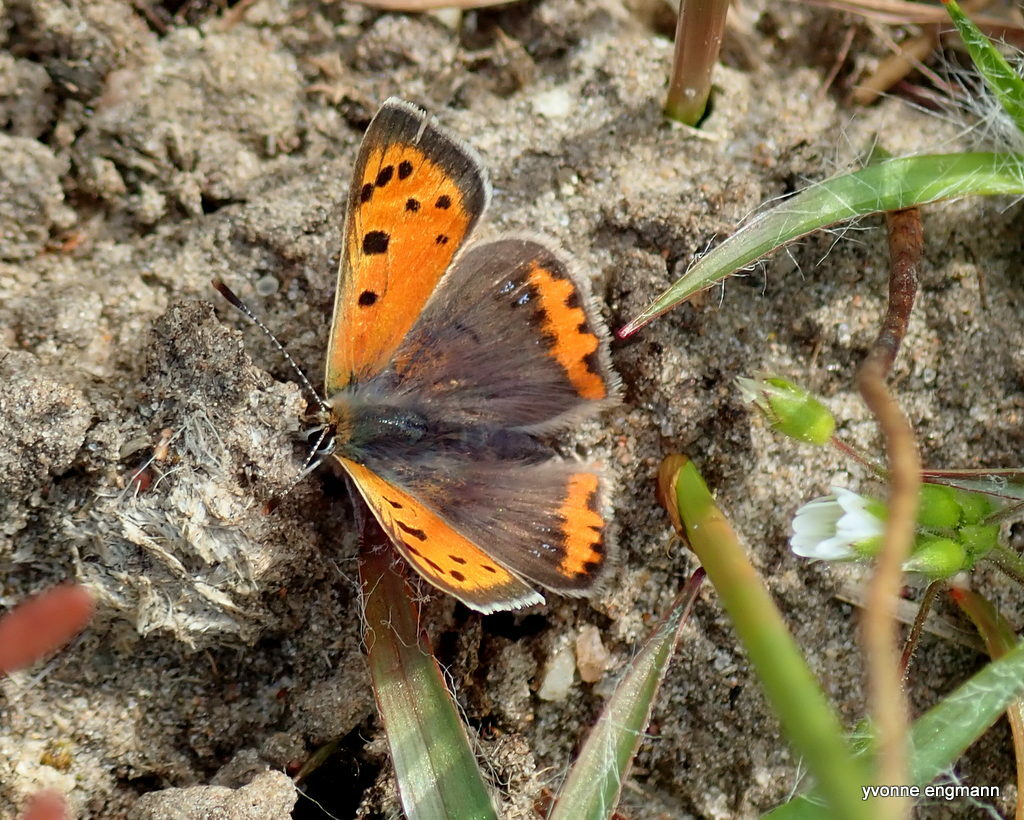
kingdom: Animalia
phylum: Arthropoda
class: Insecta
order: Lepidoptera
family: Lycaenidae
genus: Lycaena
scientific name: Lycaena phlaeas
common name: Small copper
